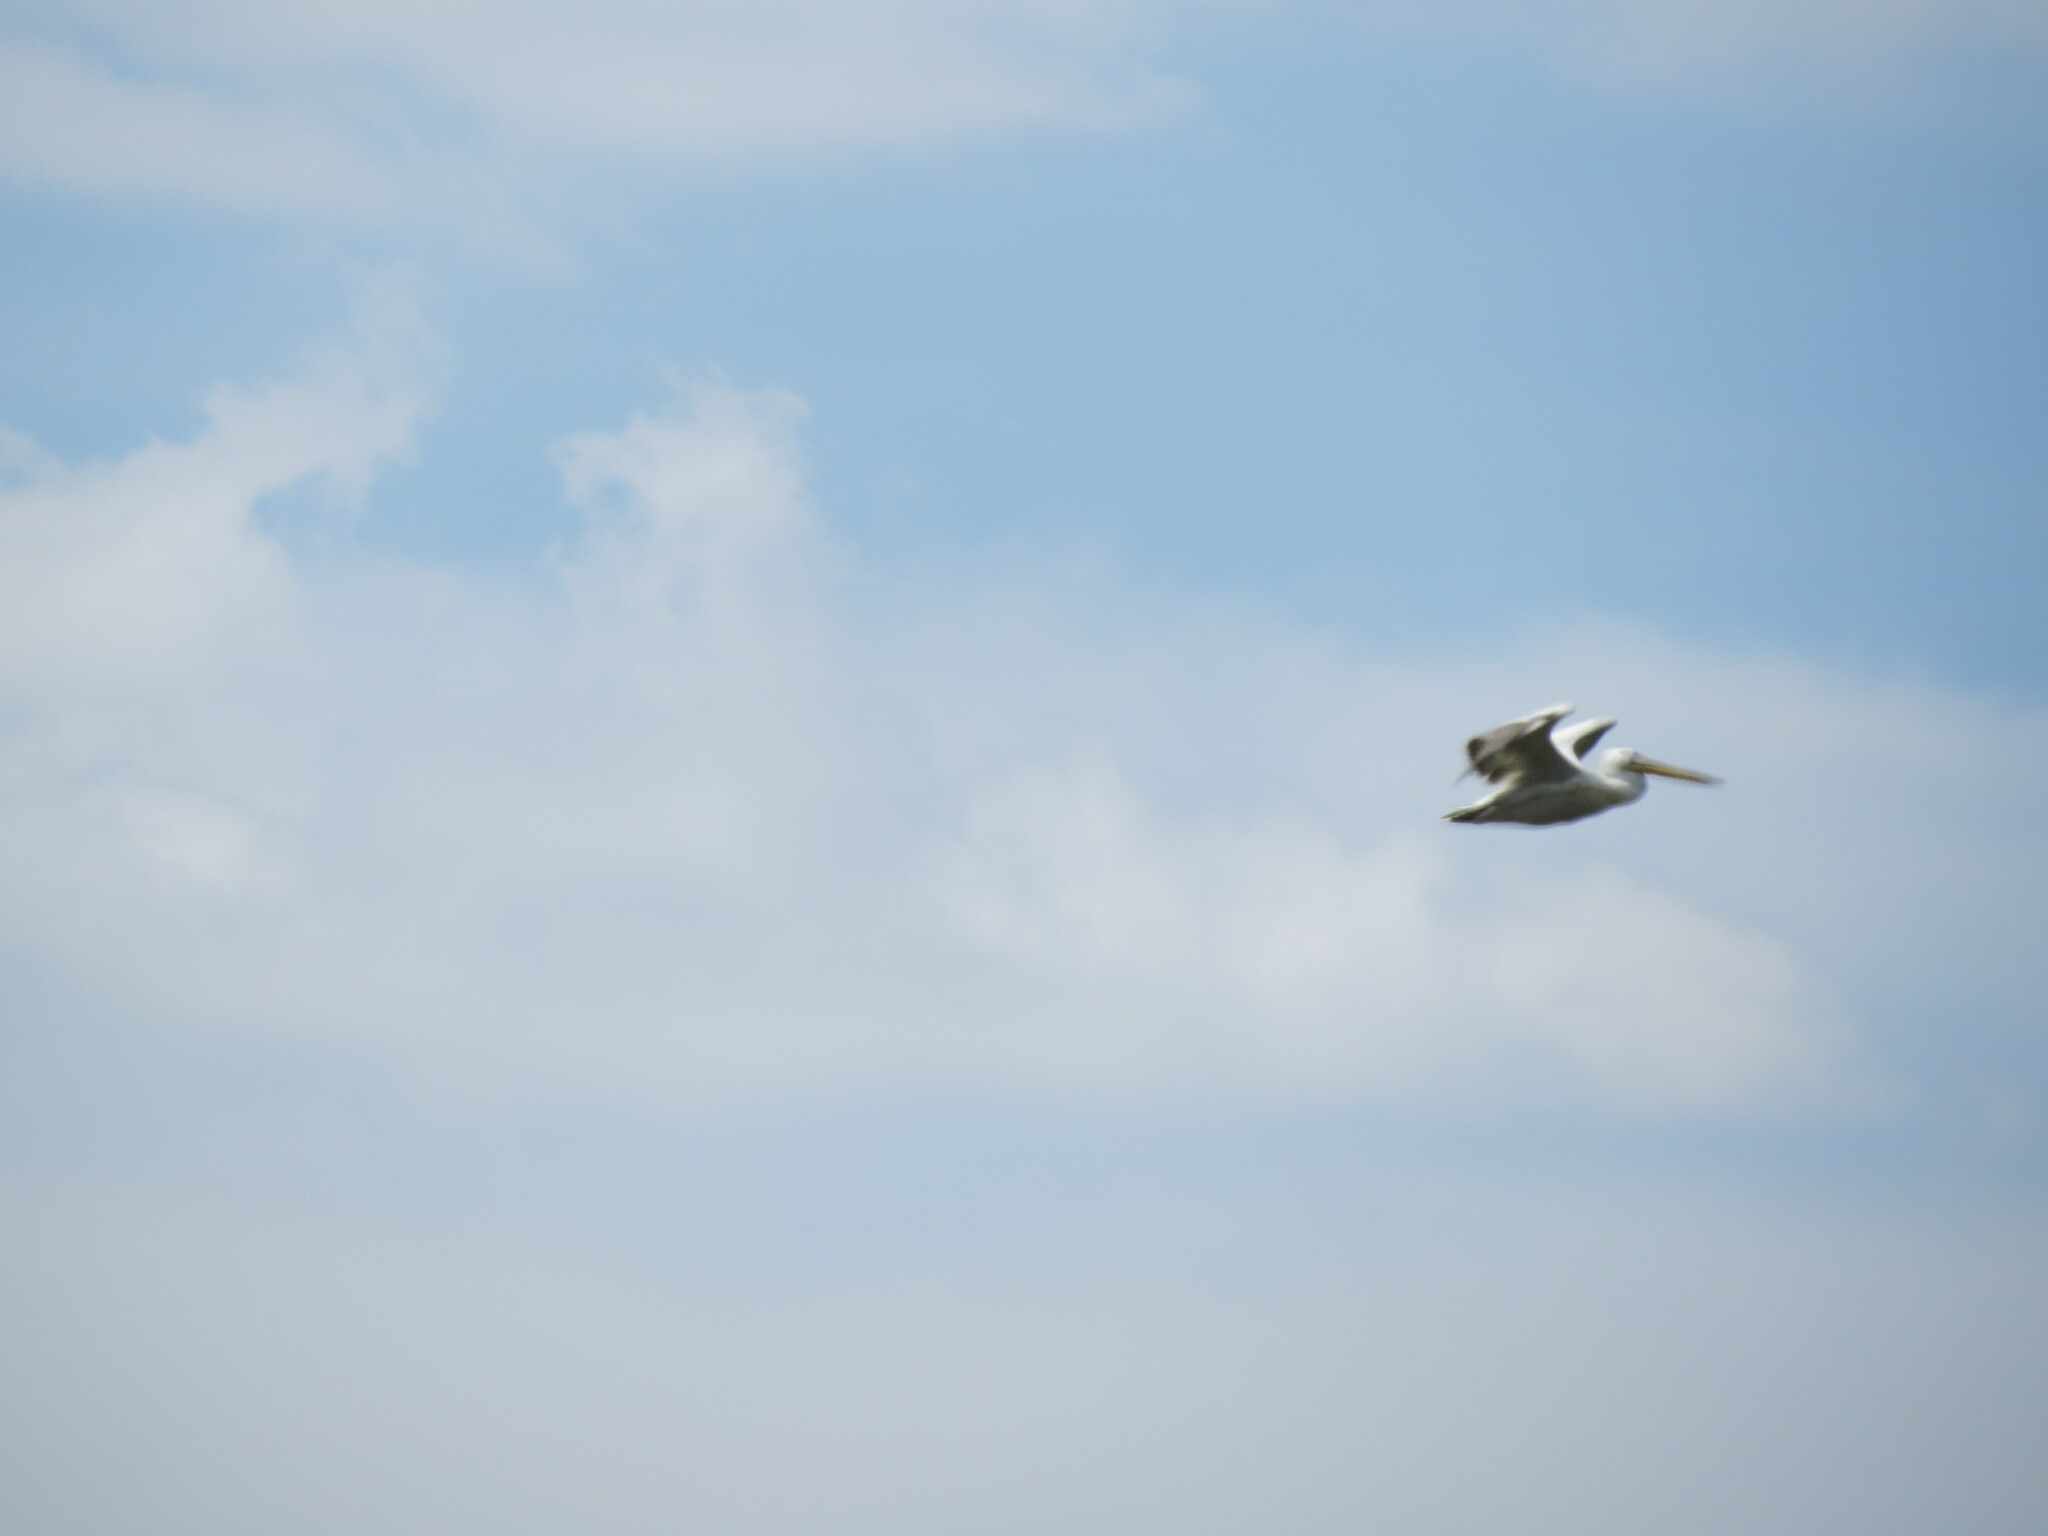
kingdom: Animalia
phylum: Chordata
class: Aves
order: Pelecaniformes
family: Pelecanidae
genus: Pelecanus
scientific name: Pelecanus crispus
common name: Dalmatian pelican
